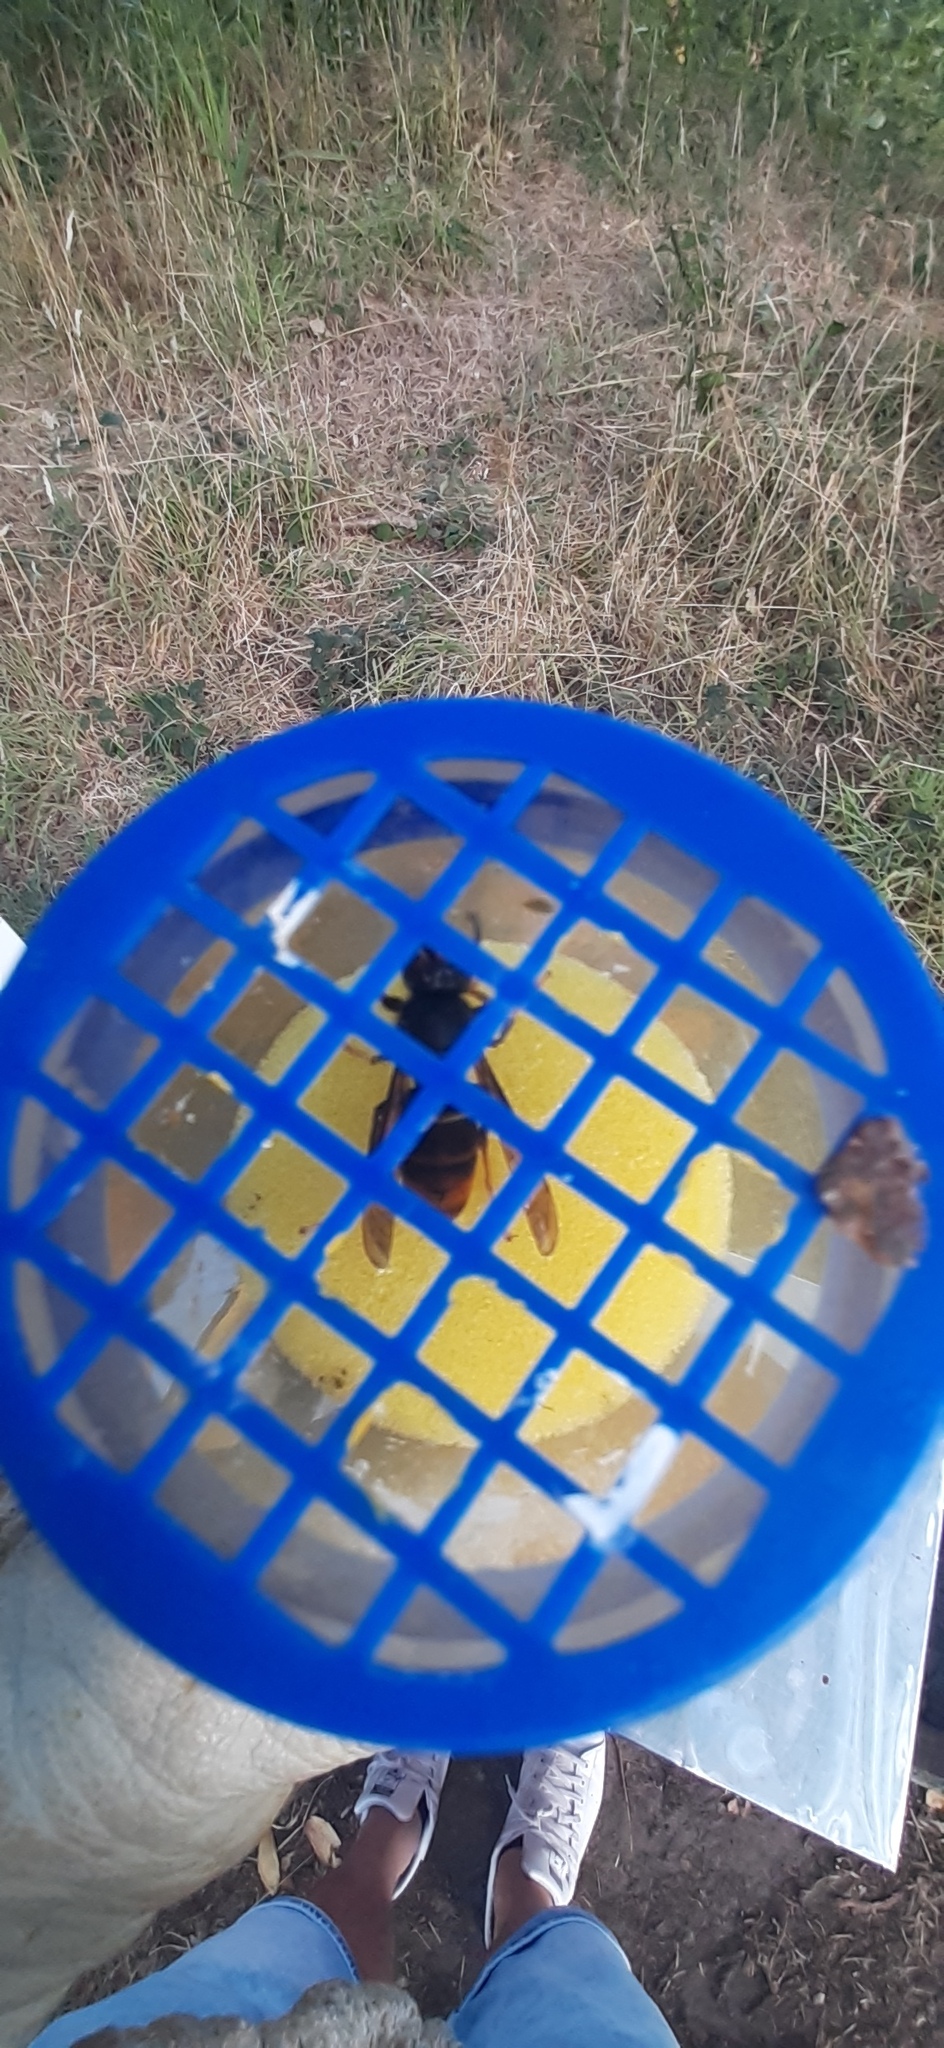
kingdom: Animalia
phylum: Arthropoda
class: Insecta
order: Hymenoptera
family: Vespidae
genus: Vespa
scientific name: Vespa velutina
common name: Asian hornet
